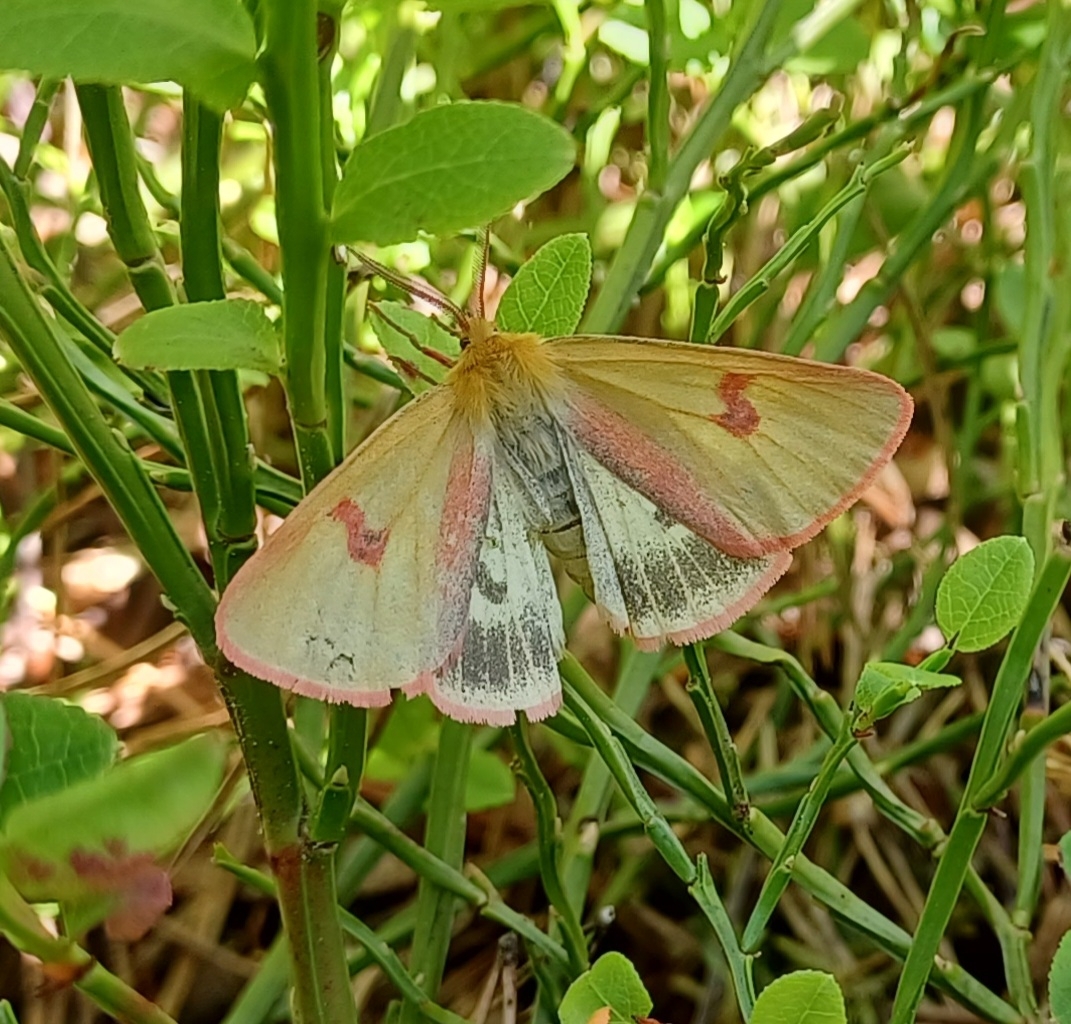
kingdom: Animalia
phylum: Arthropoda
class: Insecta
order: Lepidoptera
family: Erebidae
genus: Diacrisia
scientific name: Diacrisia sannio
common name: Clouded buff
